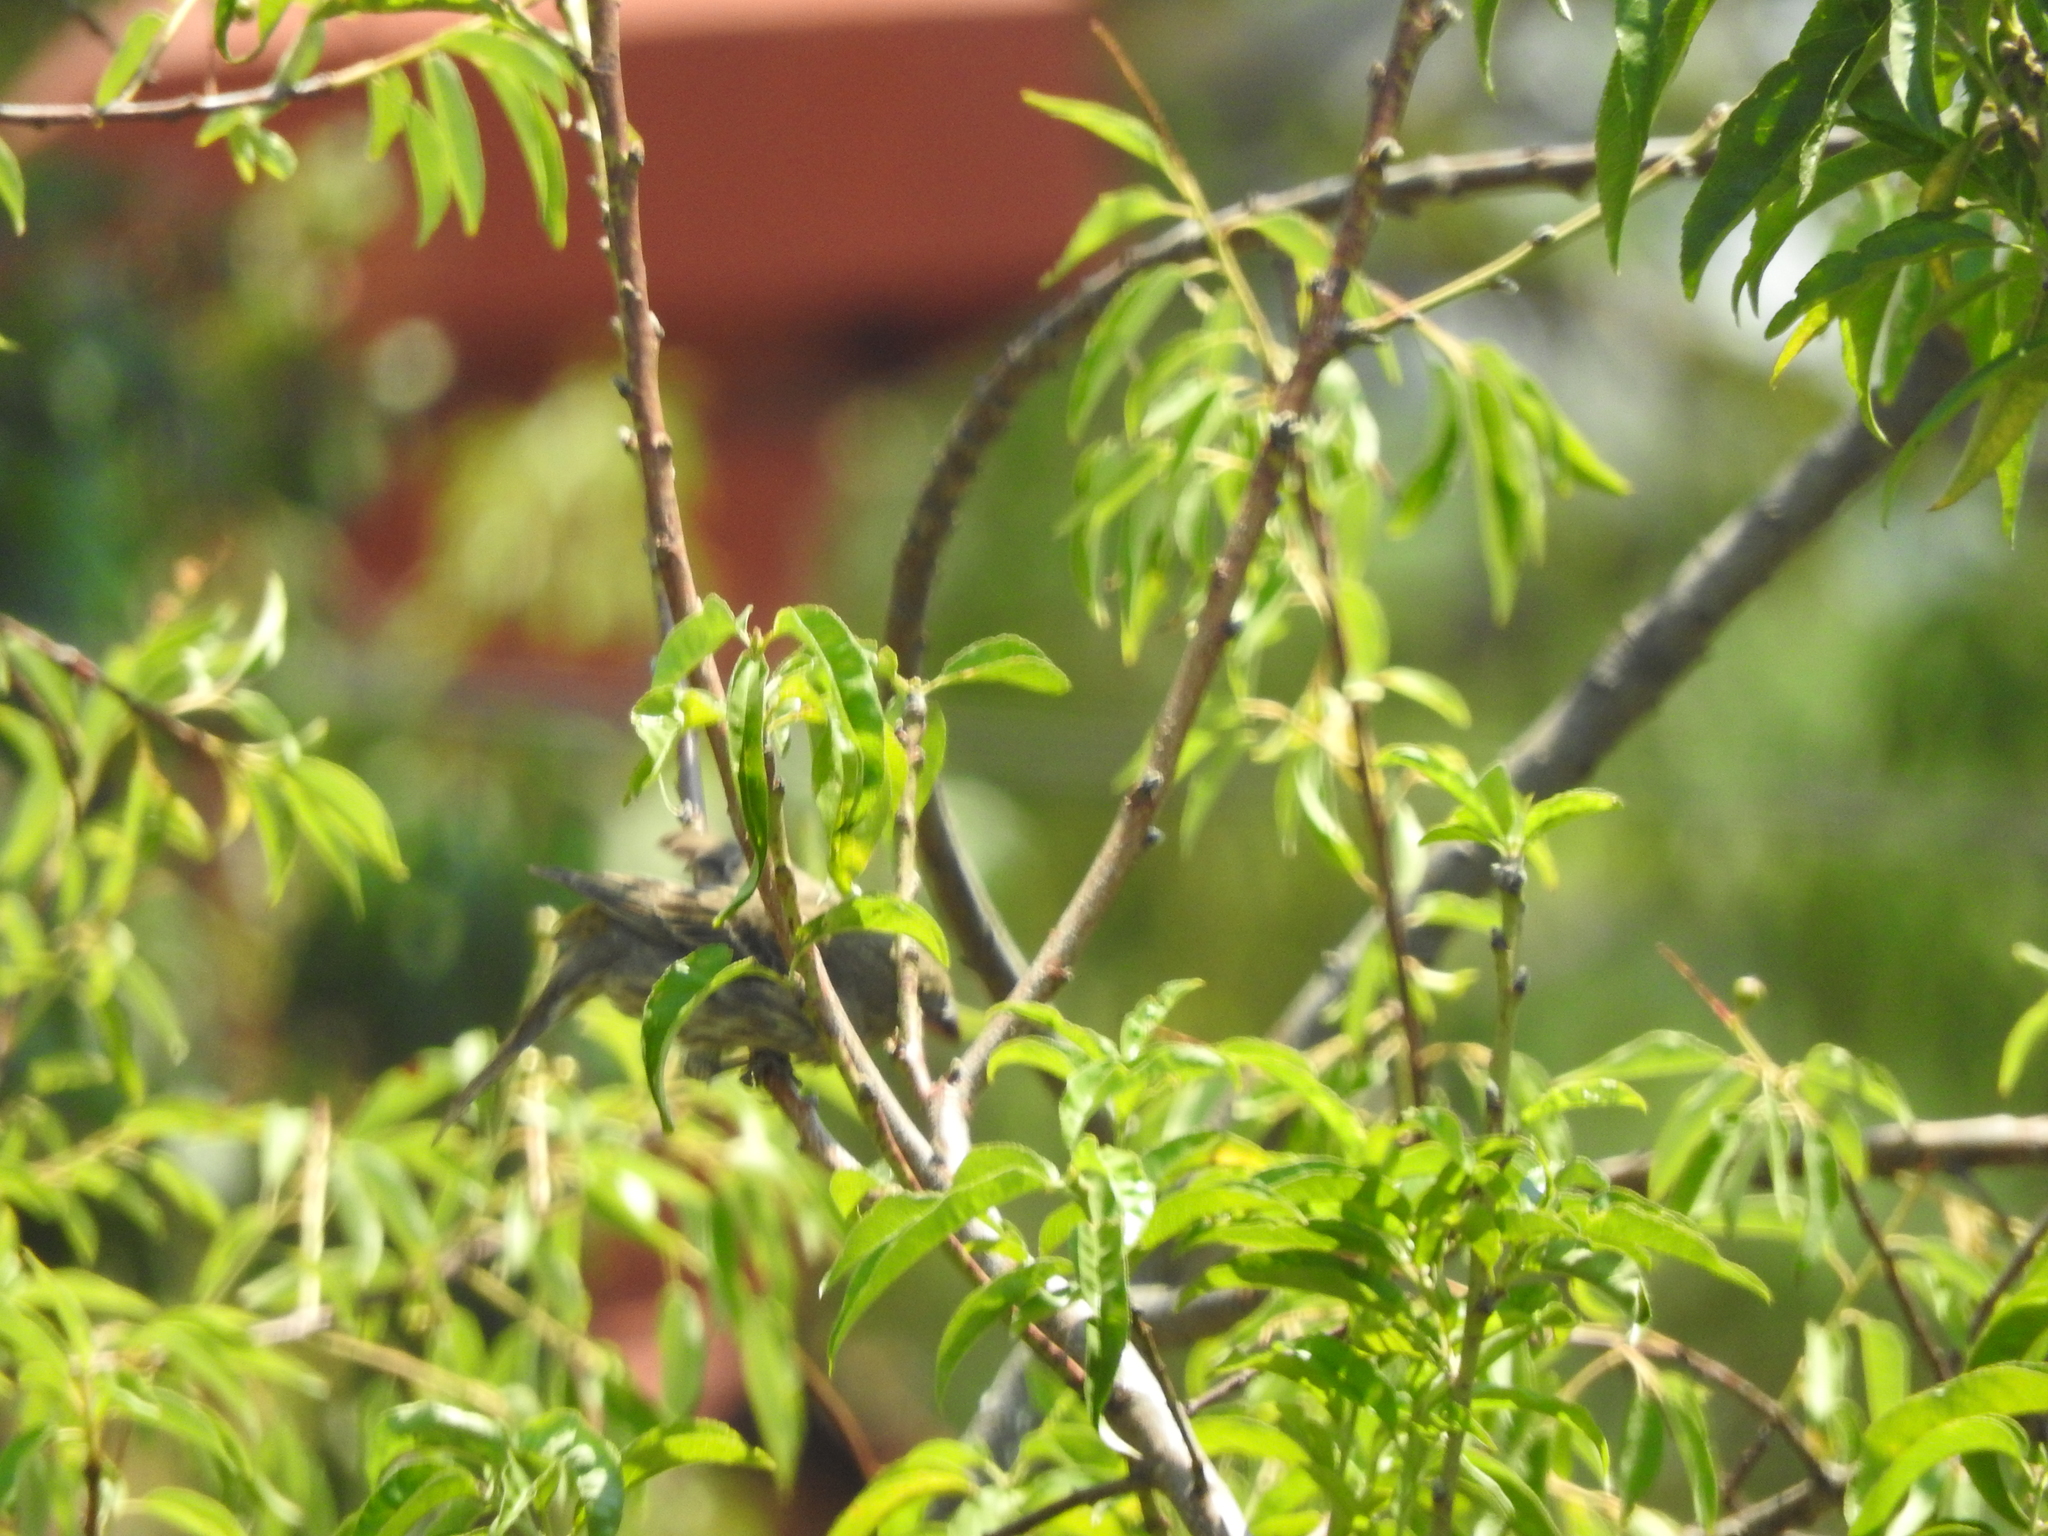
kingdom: Animalia
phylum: Chordata
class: Aves
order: Passeriformes
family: Passeridae
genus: Passer
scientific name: Passer domesticus
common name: House sparrow
